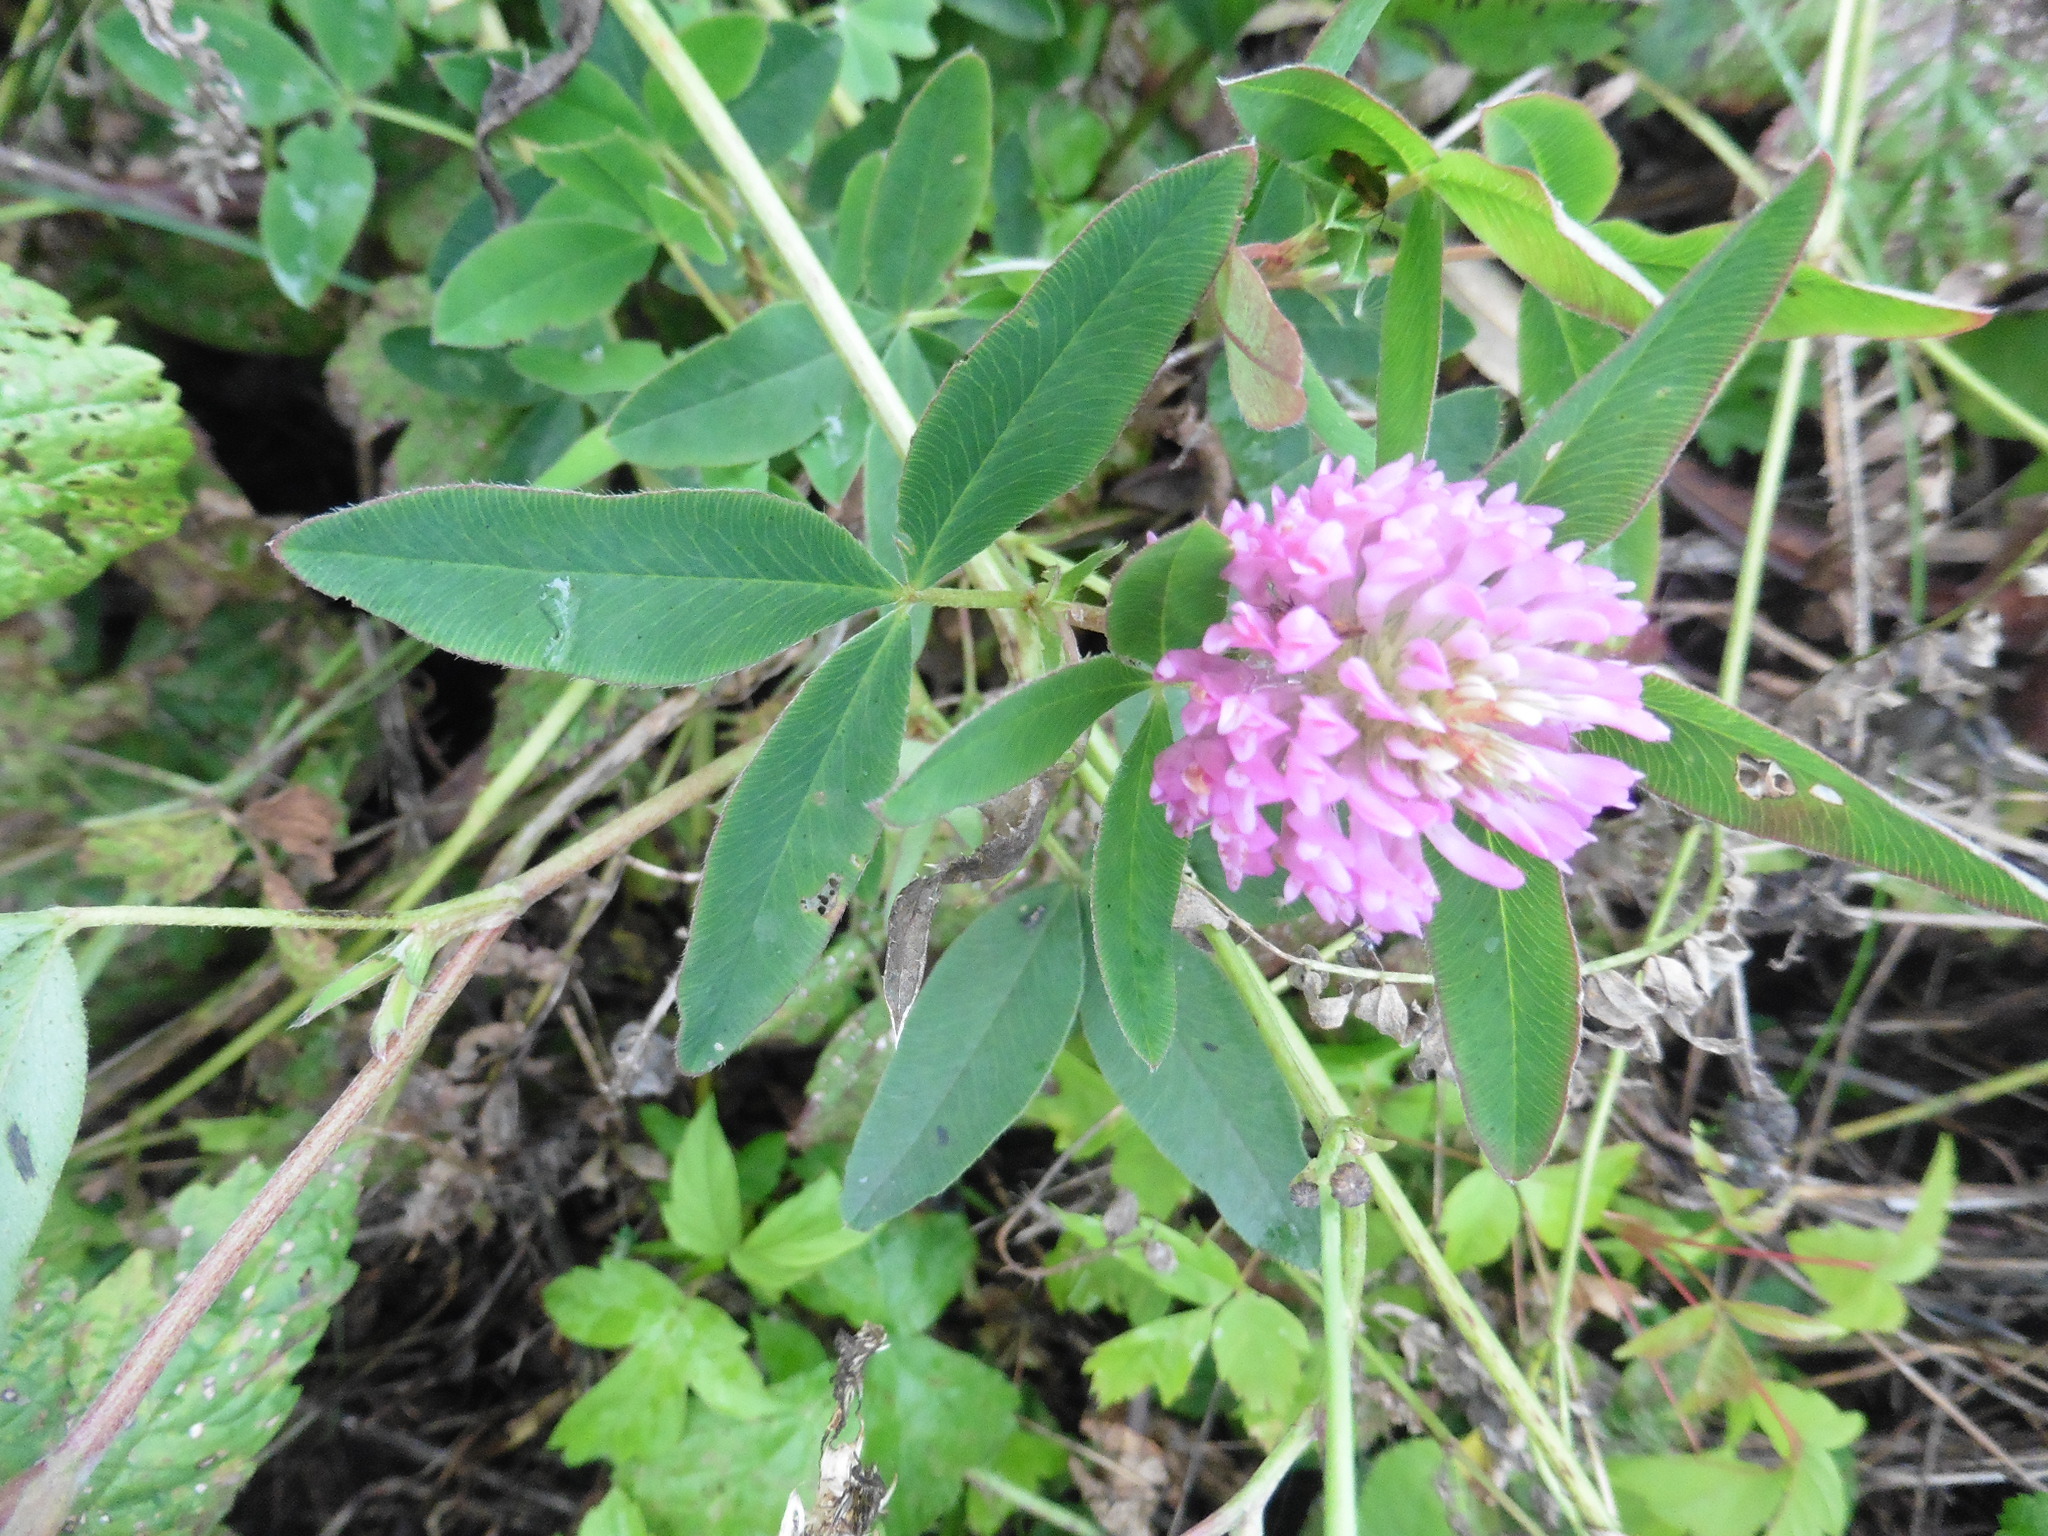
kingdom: Plantae
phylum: Tracheophyta
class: Magnoliopsida
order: Fabales
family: Fabaceae
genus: Trifolium
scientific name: Trifolium medium
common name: Zigzag clover
